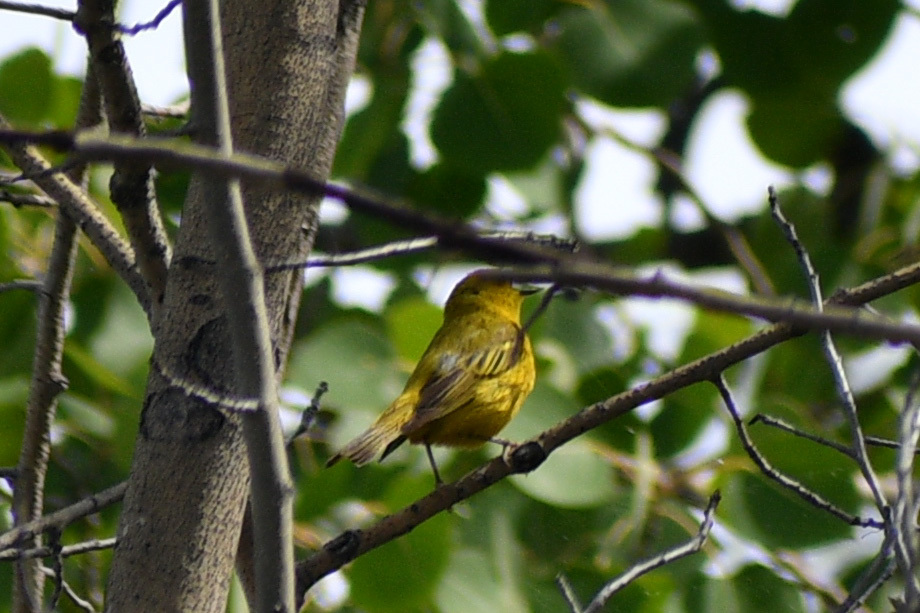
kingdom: Animalia
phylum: Chordata
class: Aves
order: Passeriformes
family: Parulidae
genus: Setophaga
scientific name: Setophaga petechia
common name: Yellow warbler
